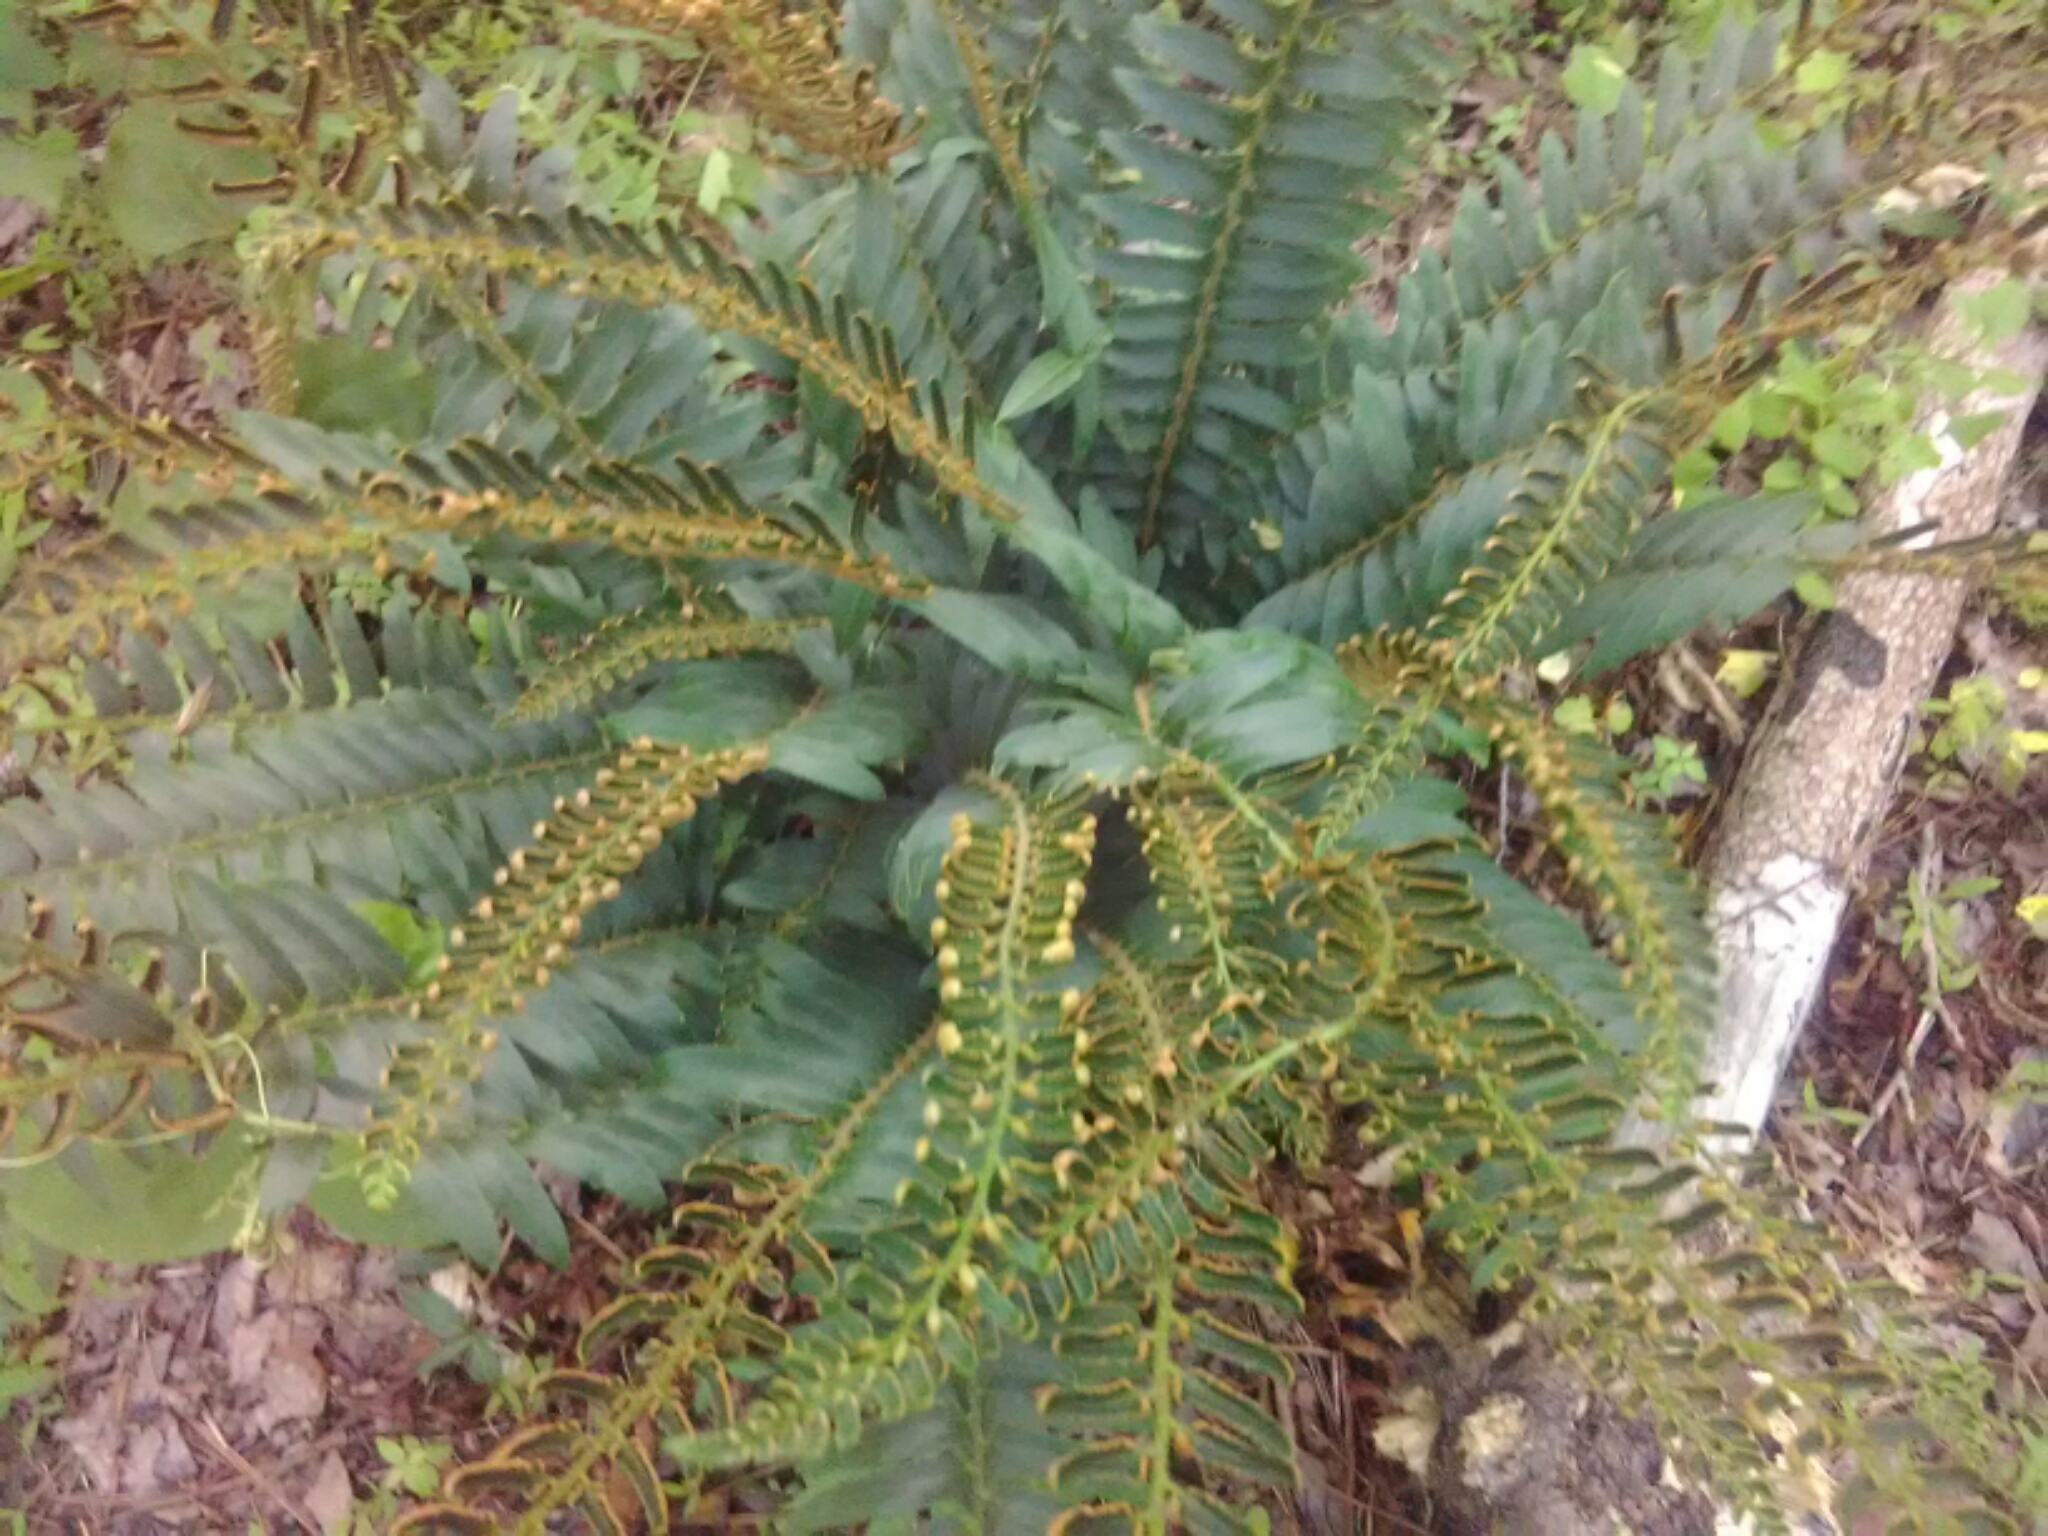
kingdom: Plantae
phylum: Tracheophyta
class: Polypodiopsida
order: Polypodiales
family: Dryopteridaceae
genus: Polystichum
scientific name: Polystichum acrostichoides
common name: Christmas fern
